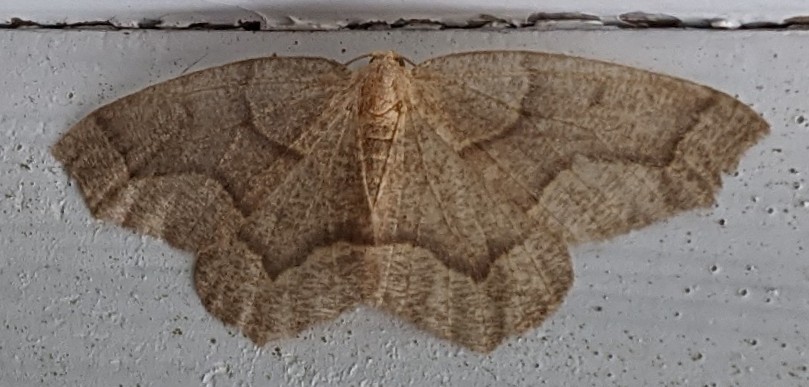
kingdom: Animalia
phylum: Arthropoda
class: Insecta
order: Lepidoptera
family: Geometridae
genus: Lambdina
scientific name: Lambdina fiscellaria
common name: Hemlock looper
